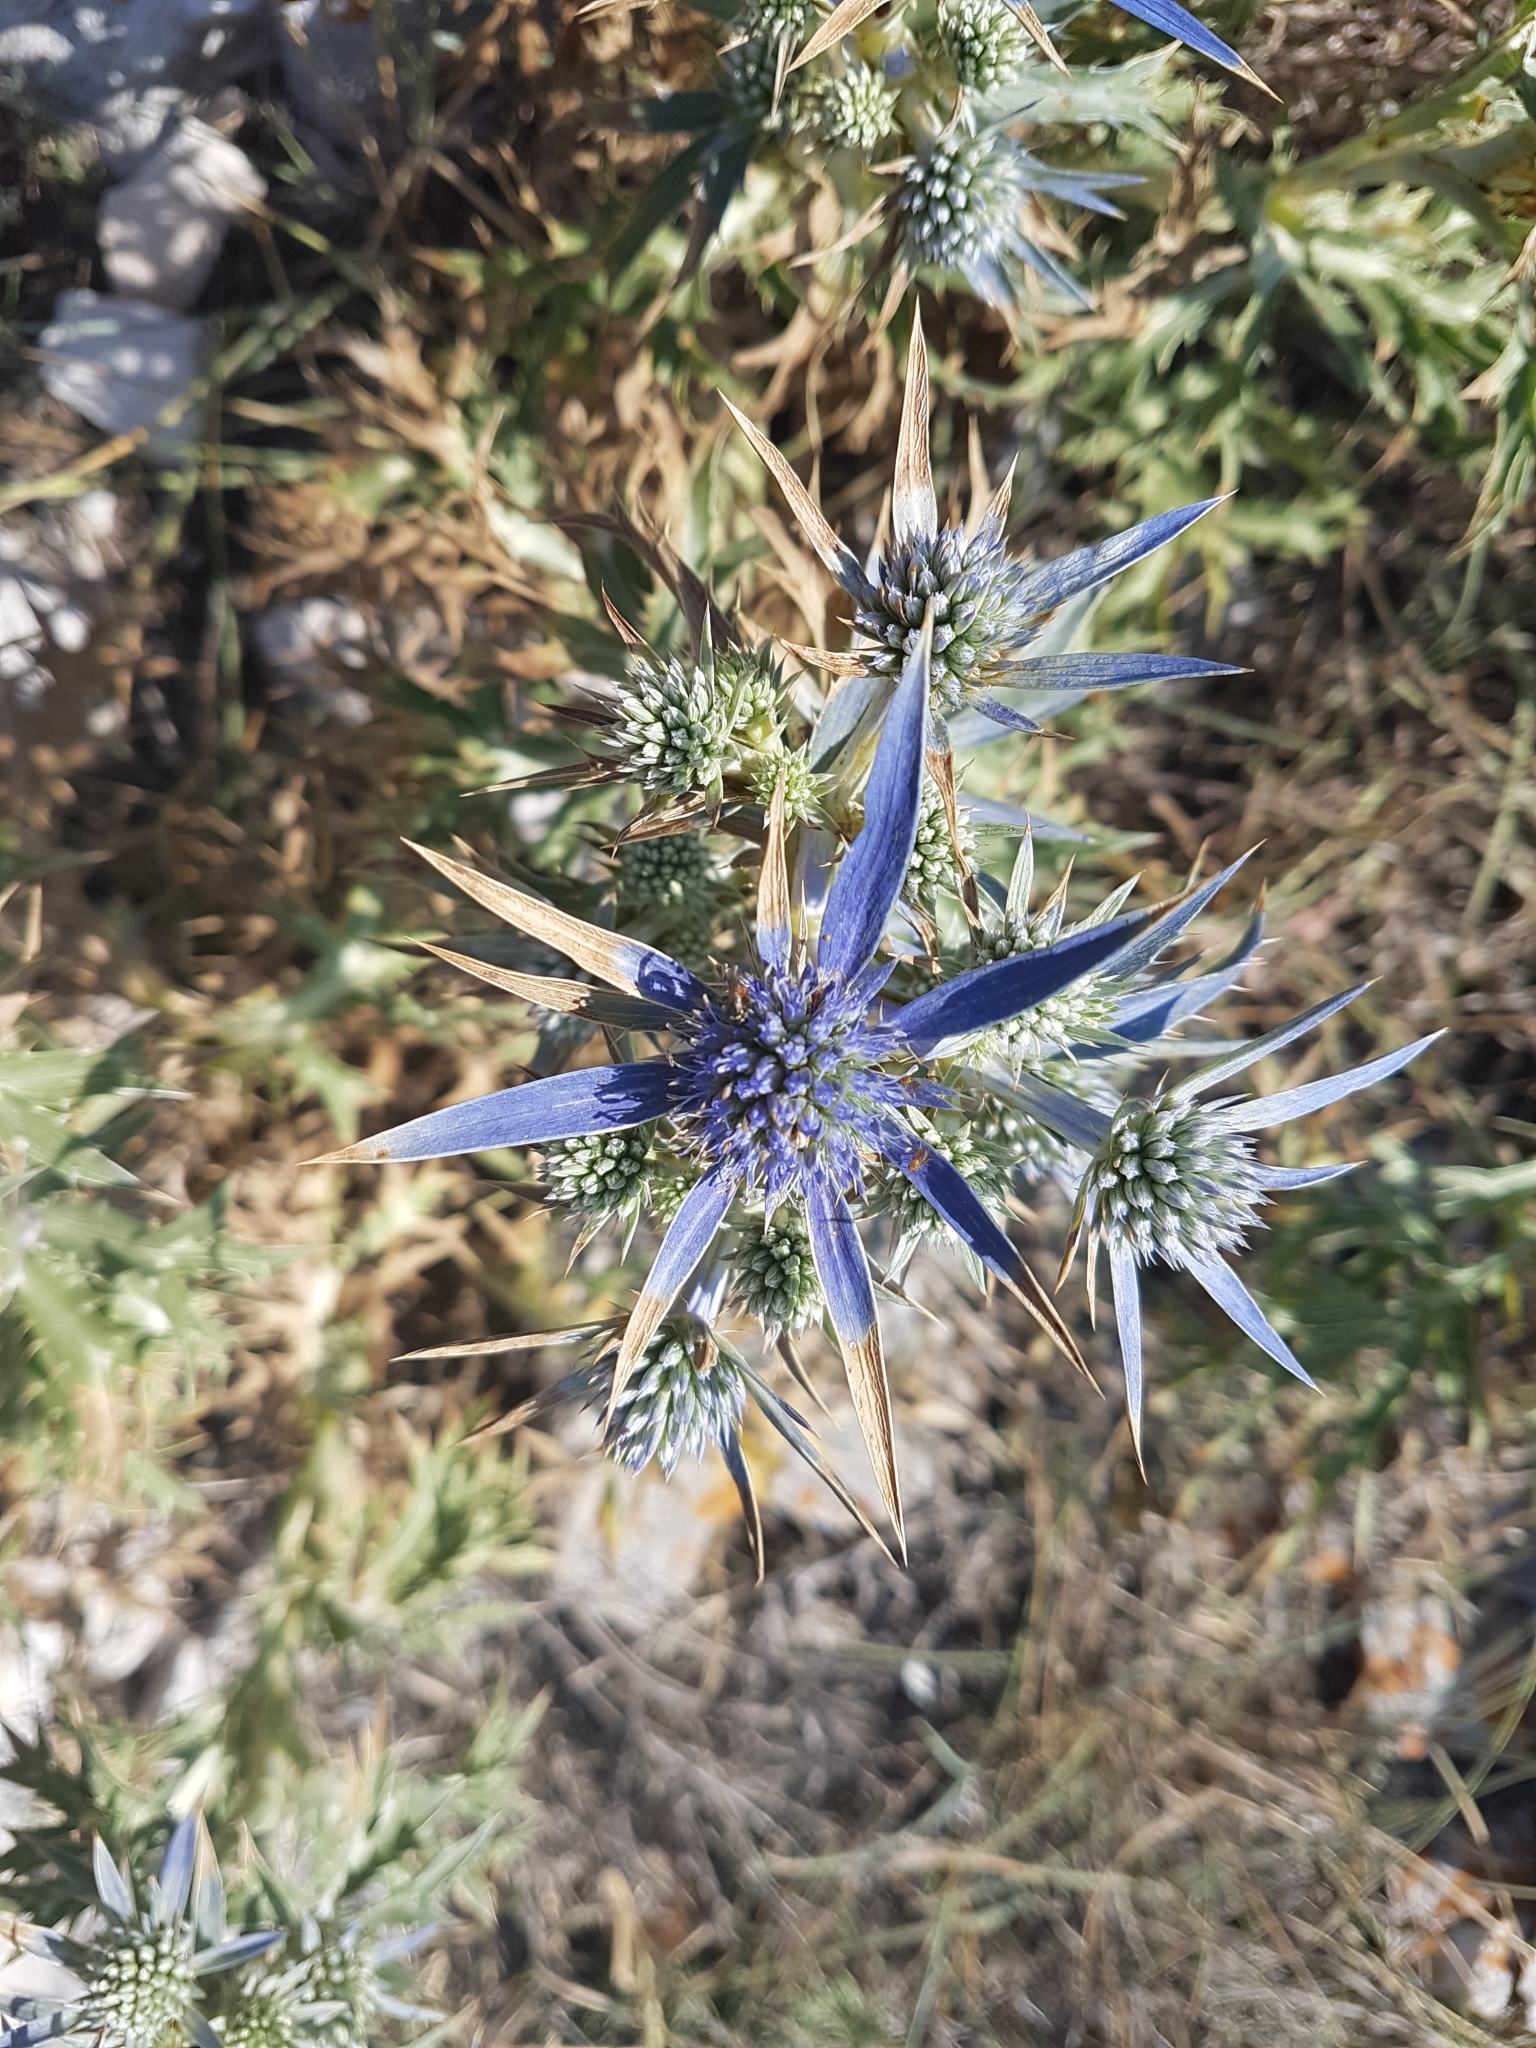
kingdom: Plantae
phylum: Tracheophyta
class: Magnoliopsida
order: Apiales
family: Apiaceae
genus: Eryngium
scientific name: Eryngium
